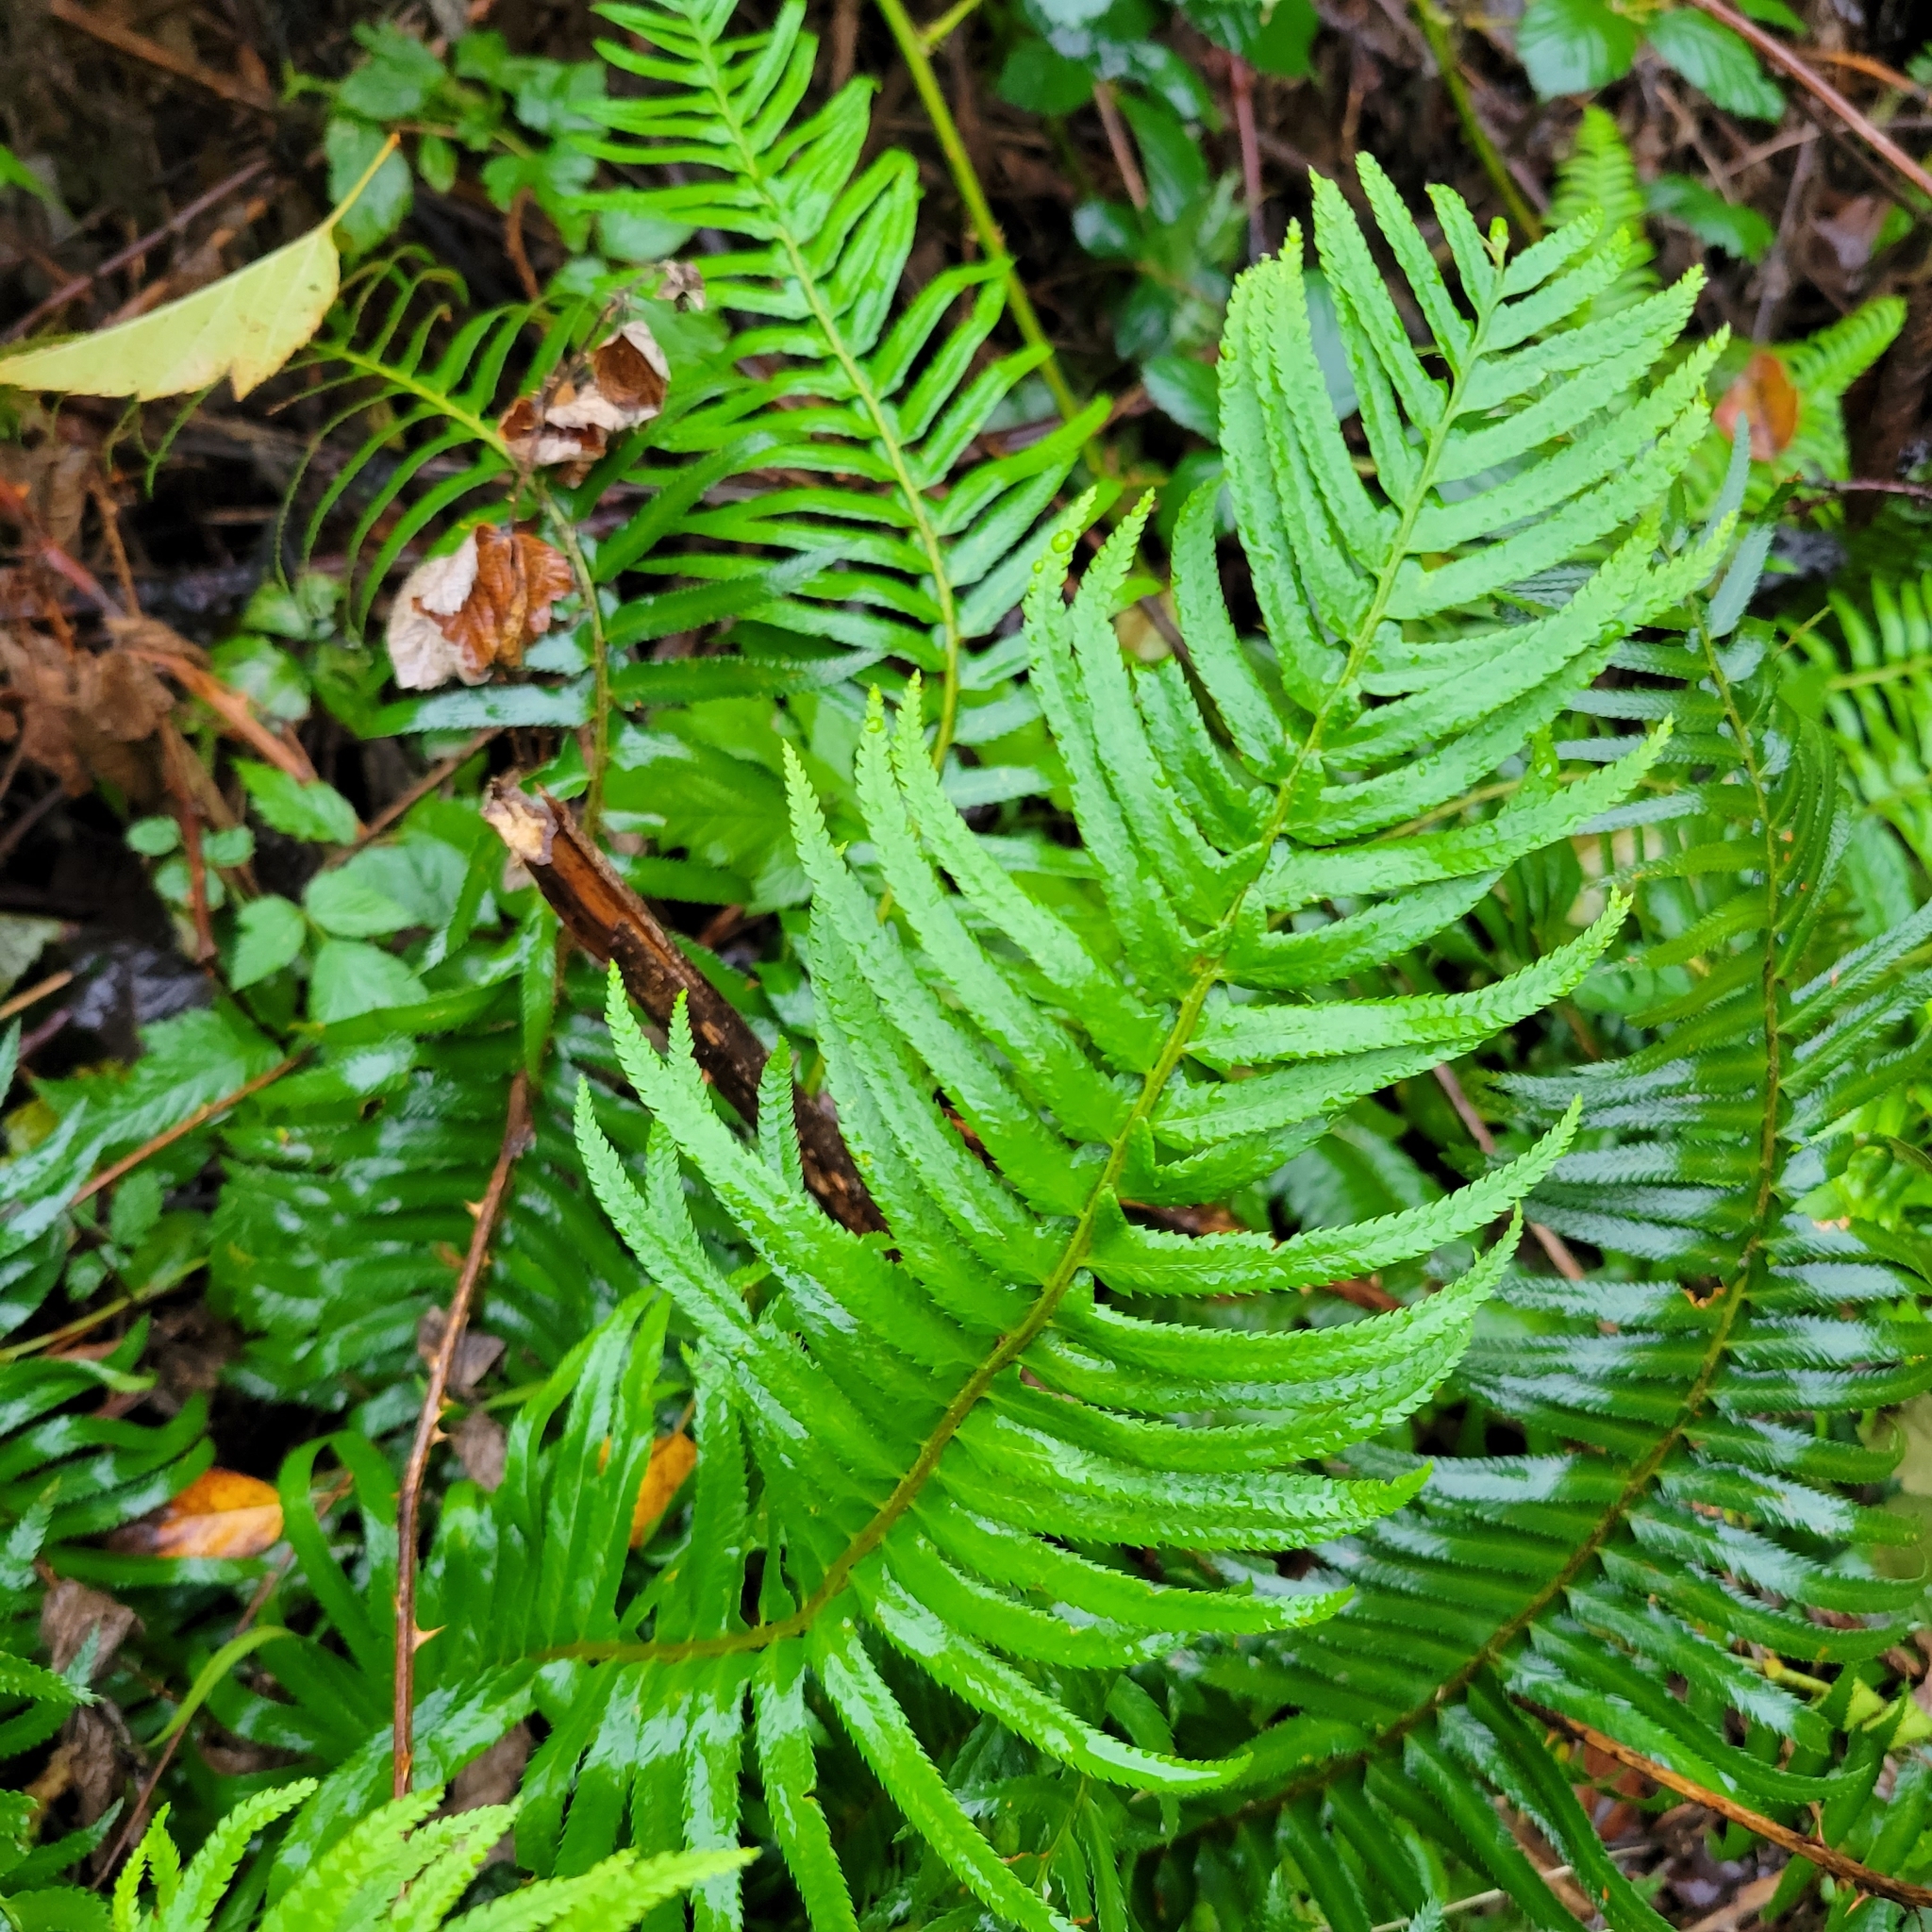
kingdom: Plantae
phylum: Tracheophyta
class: Polypodiopsida
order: Polypodiales
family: Dryopteridaceae
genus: Polystichum
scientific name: Polystichum munitum
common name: Western sword-fern
